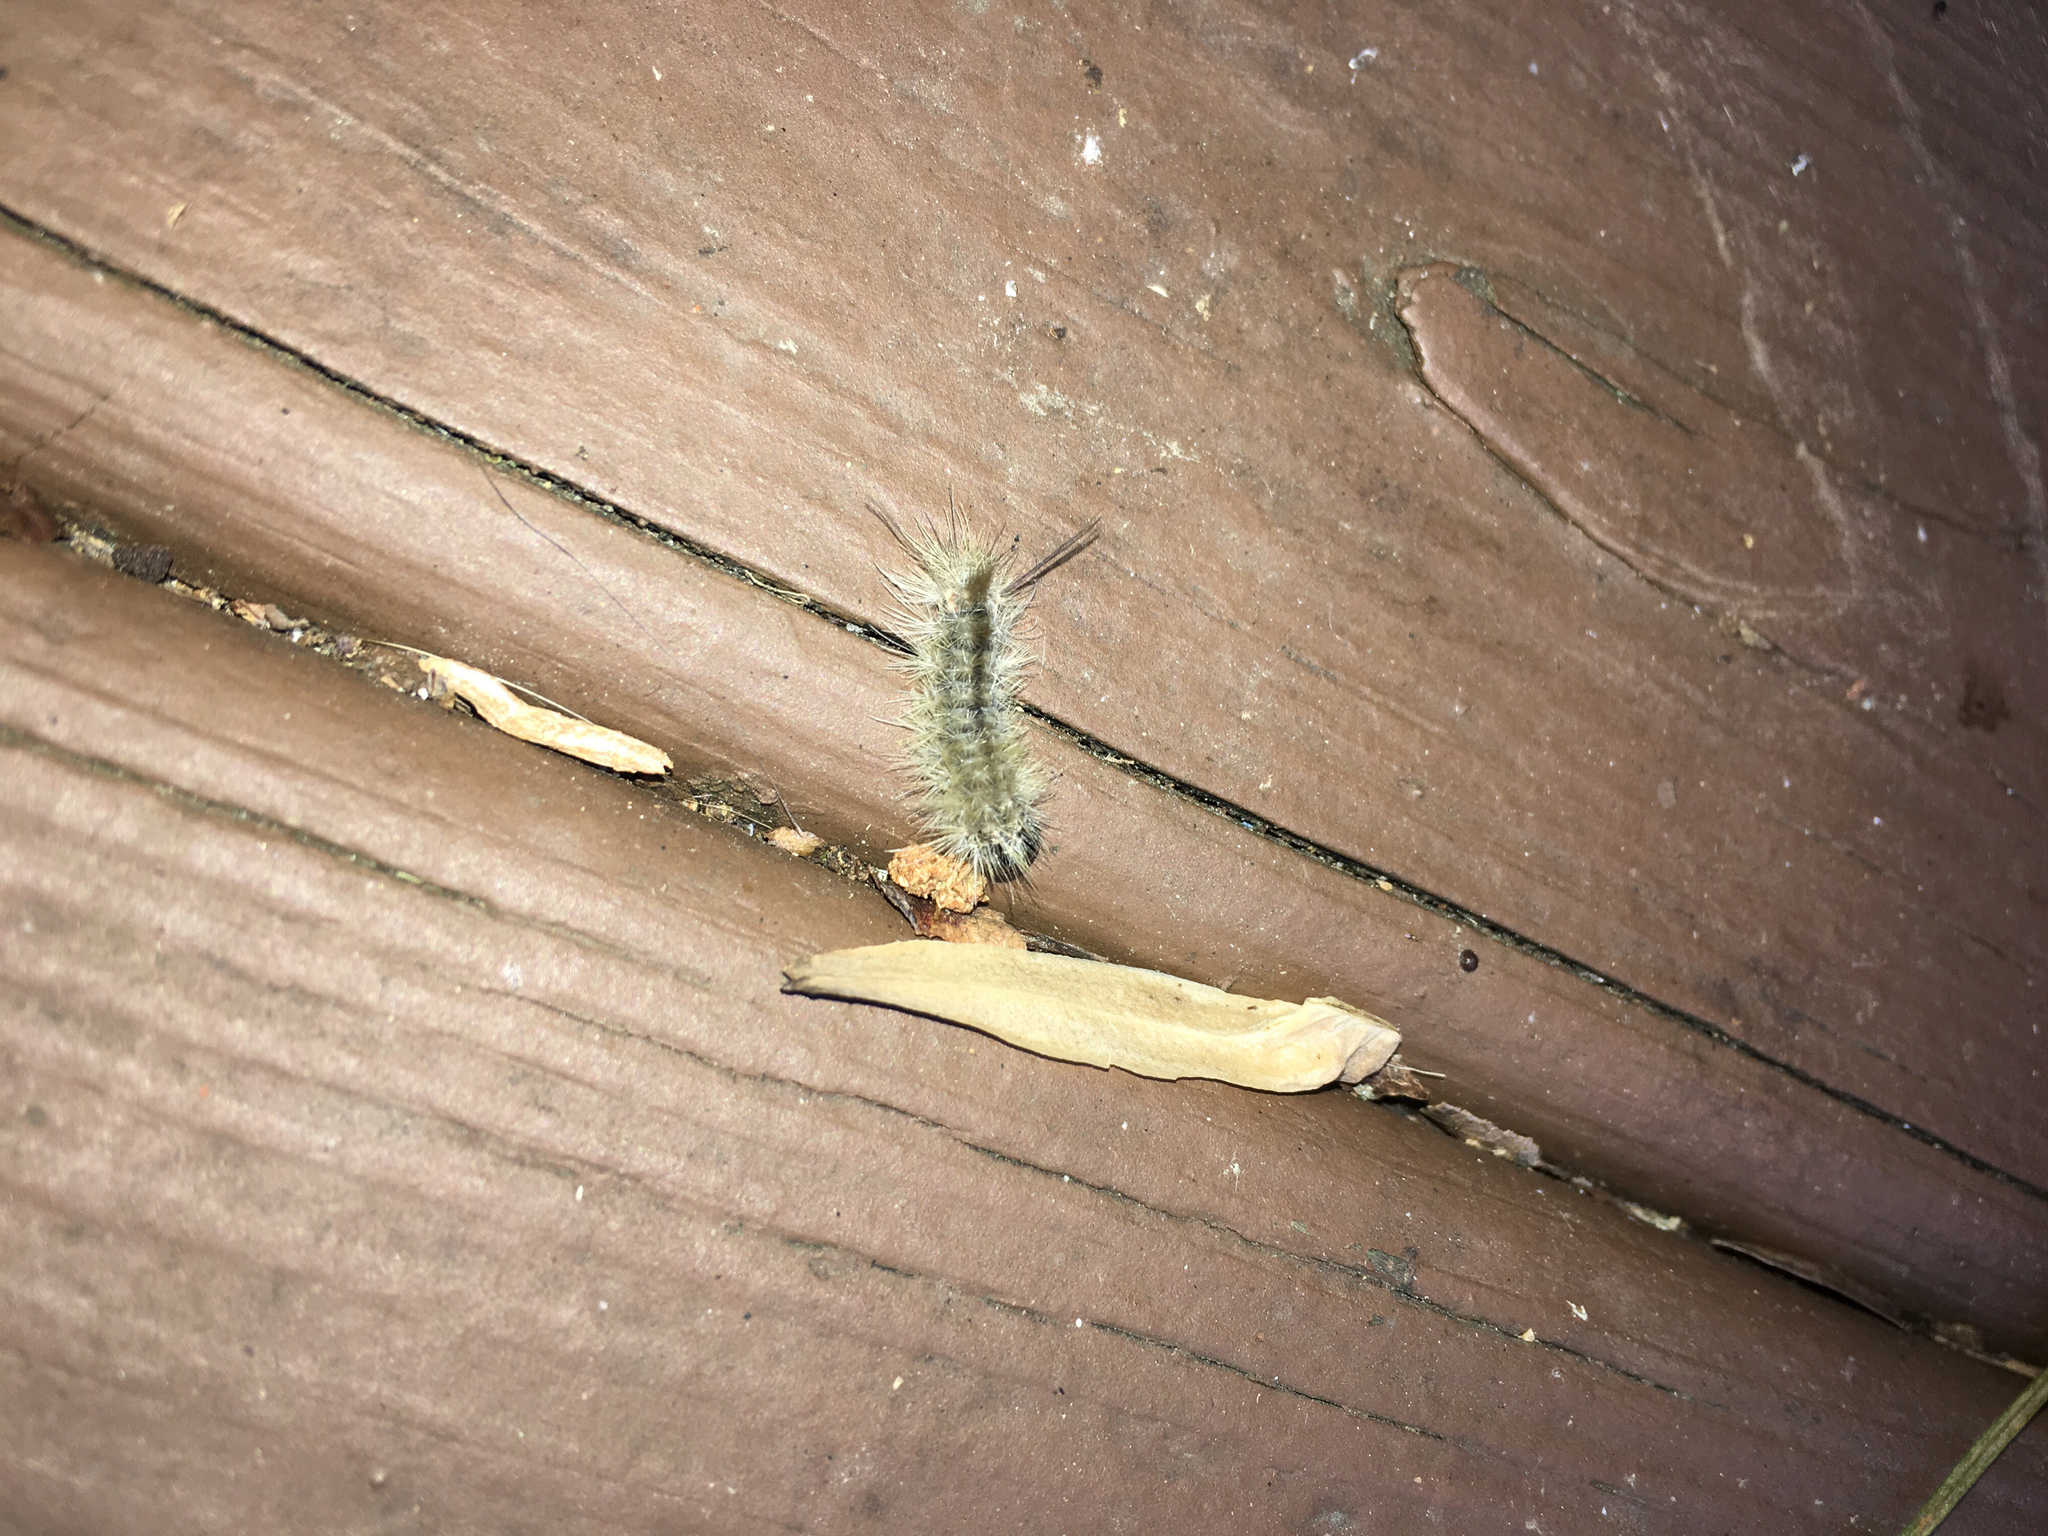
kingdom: Animalia
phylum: Arthropoda
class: Insecta
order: Lepidoptera
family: Erebidae
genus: Halysidota
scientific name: Halysidota tessellaris
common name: Banded tussock moth
